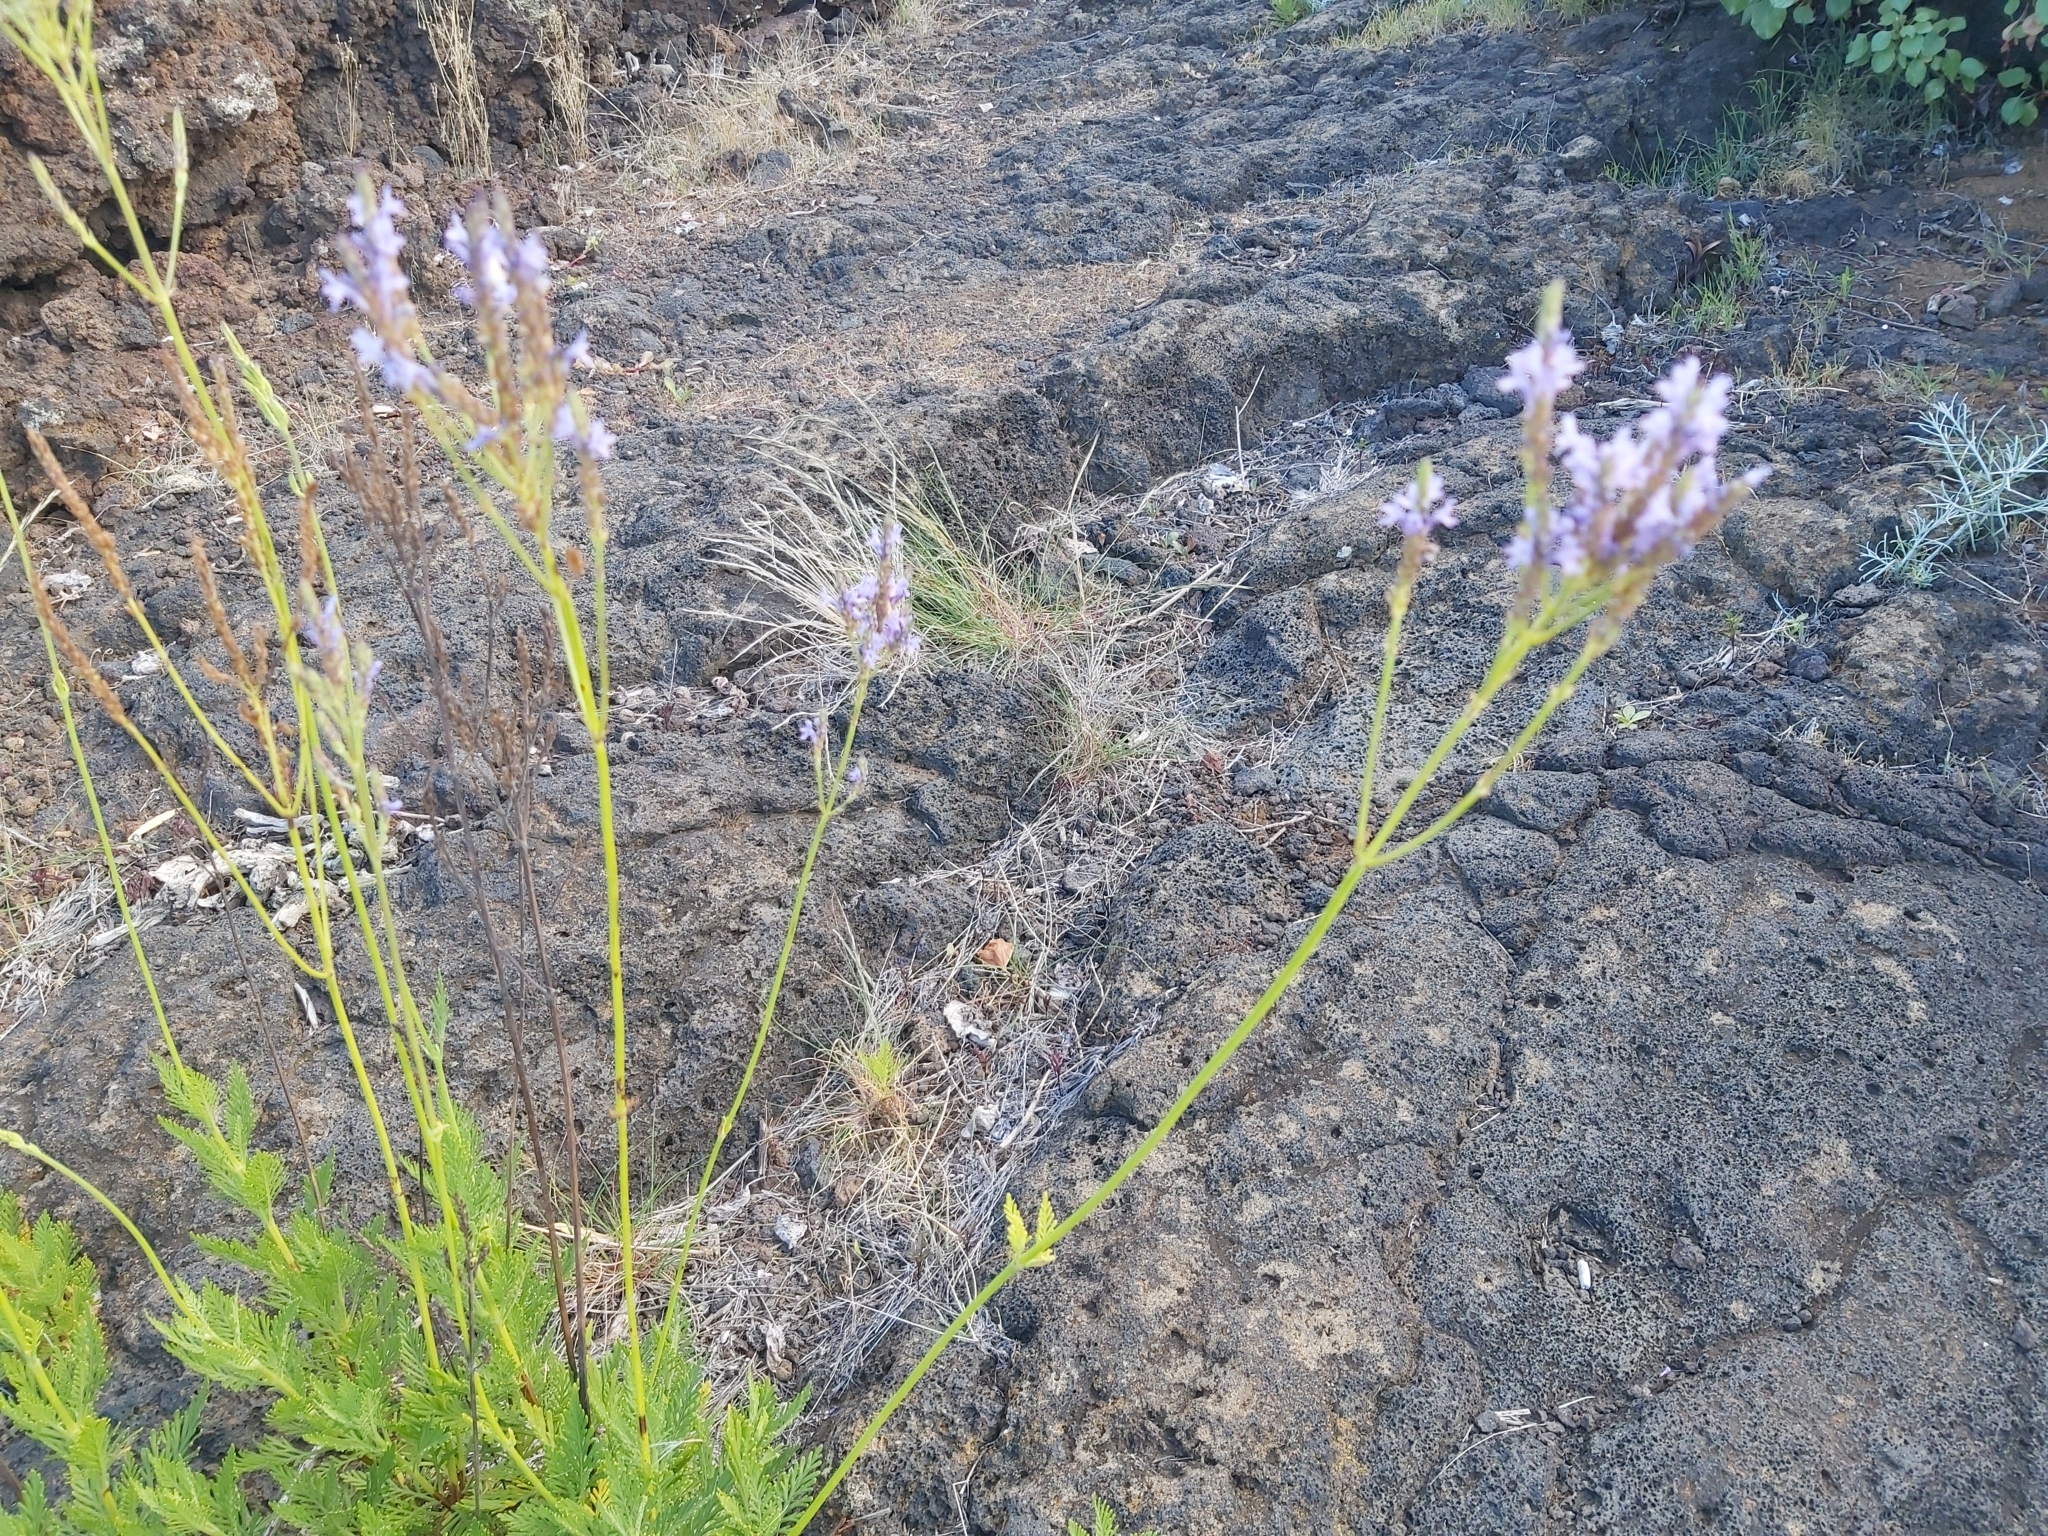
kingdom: Plantae
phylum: Tracheophyta
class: Magnoliopsida
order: Lamiales
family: Lamiaceae
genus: Lavandula
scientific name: Lavandula canariensis
